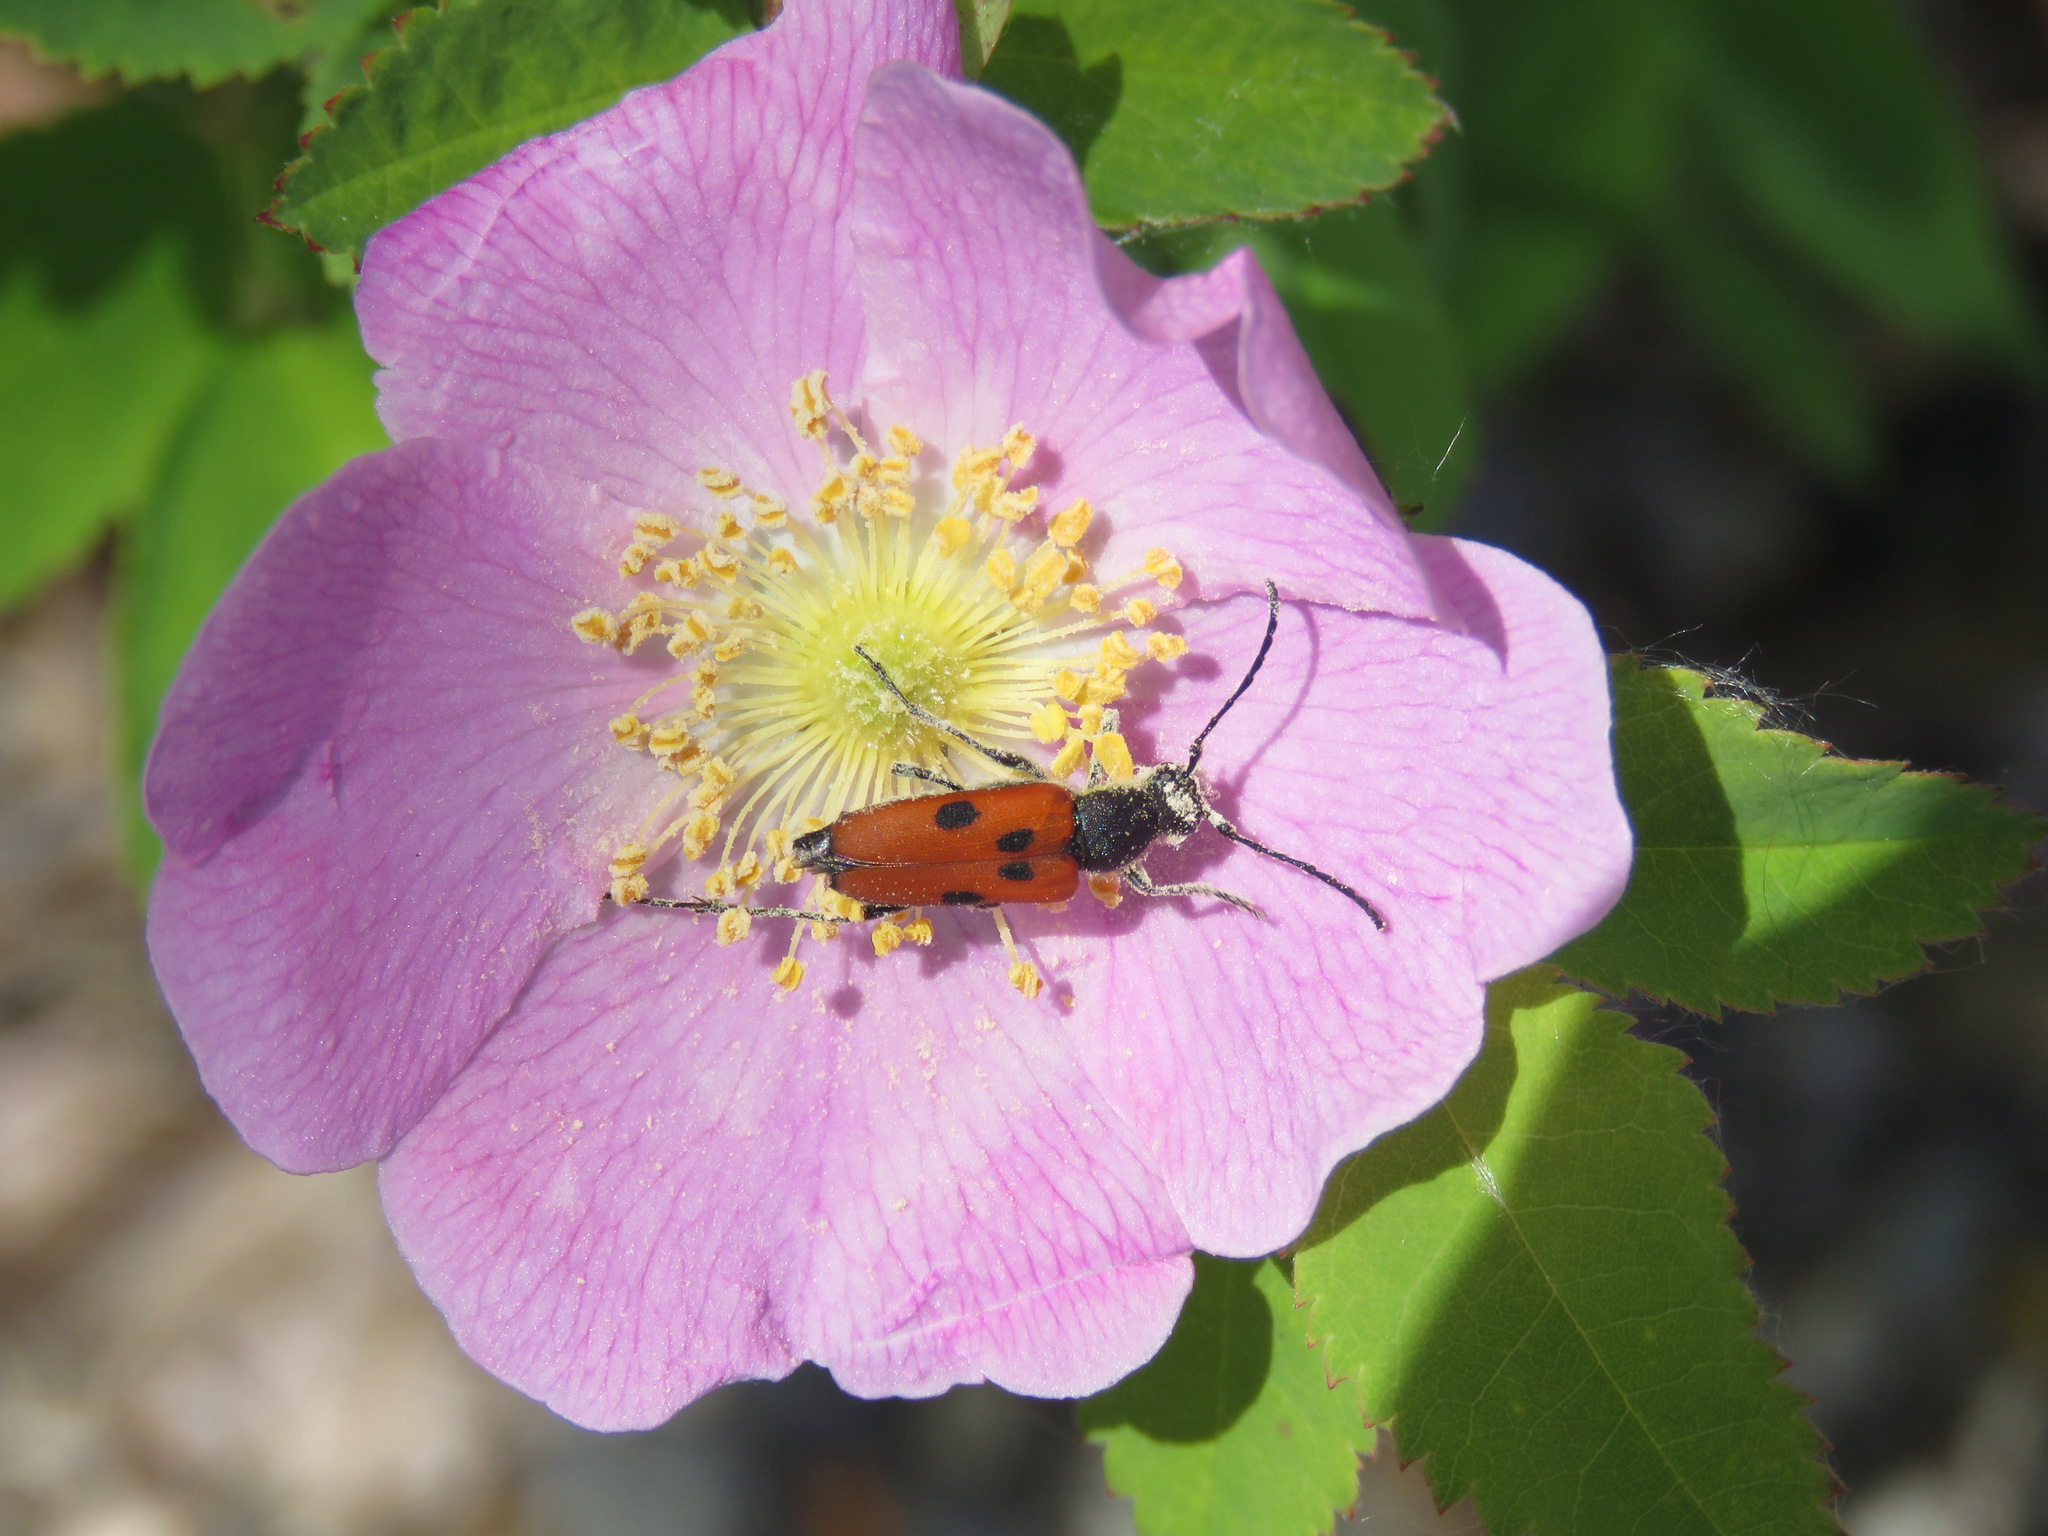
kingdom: Animalia
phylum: Arthropoda
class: Insecta
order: Coleoptera
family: Cerambycidae
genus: Anastrangalia
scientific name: Anastrangalia laetifica
